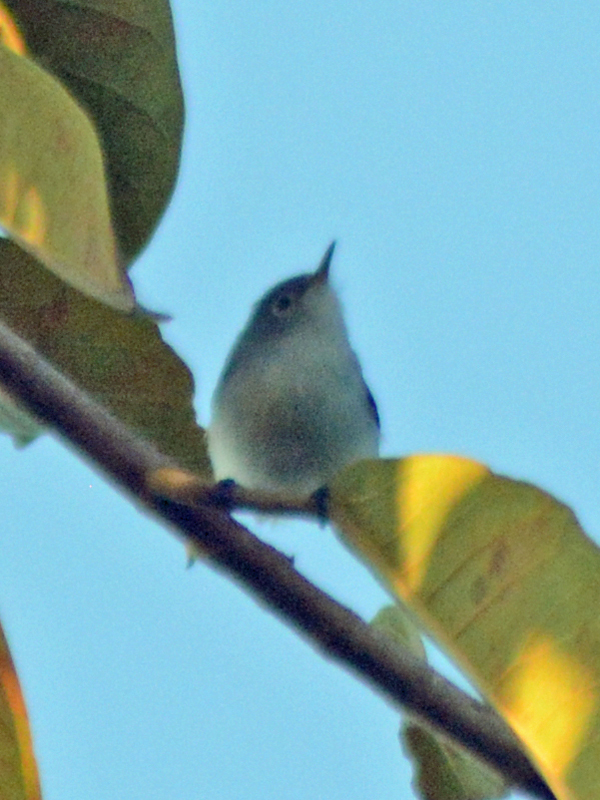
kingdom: Animalia
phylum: Chordata
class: Aves
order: Passeriformes
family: Polioptilidae
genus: Polioptila
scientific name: Polioptila caerulea
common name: Blue-gray gnatcatcher
